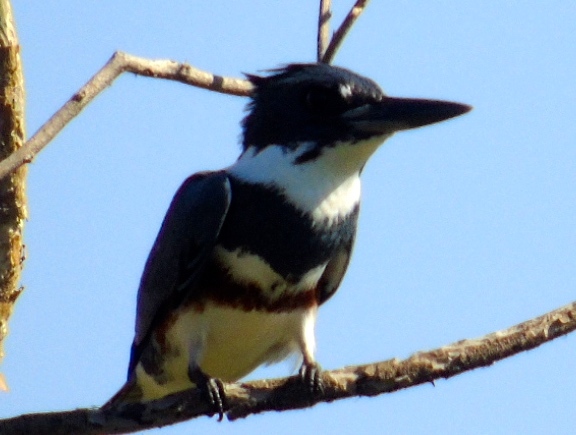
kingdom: Animalia
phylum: Chordata
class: Aves
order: Coraciiformes
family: Alcedinidae
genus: Megaceryle
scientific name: Megaceryle alcyon
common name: Belted kingfisher
